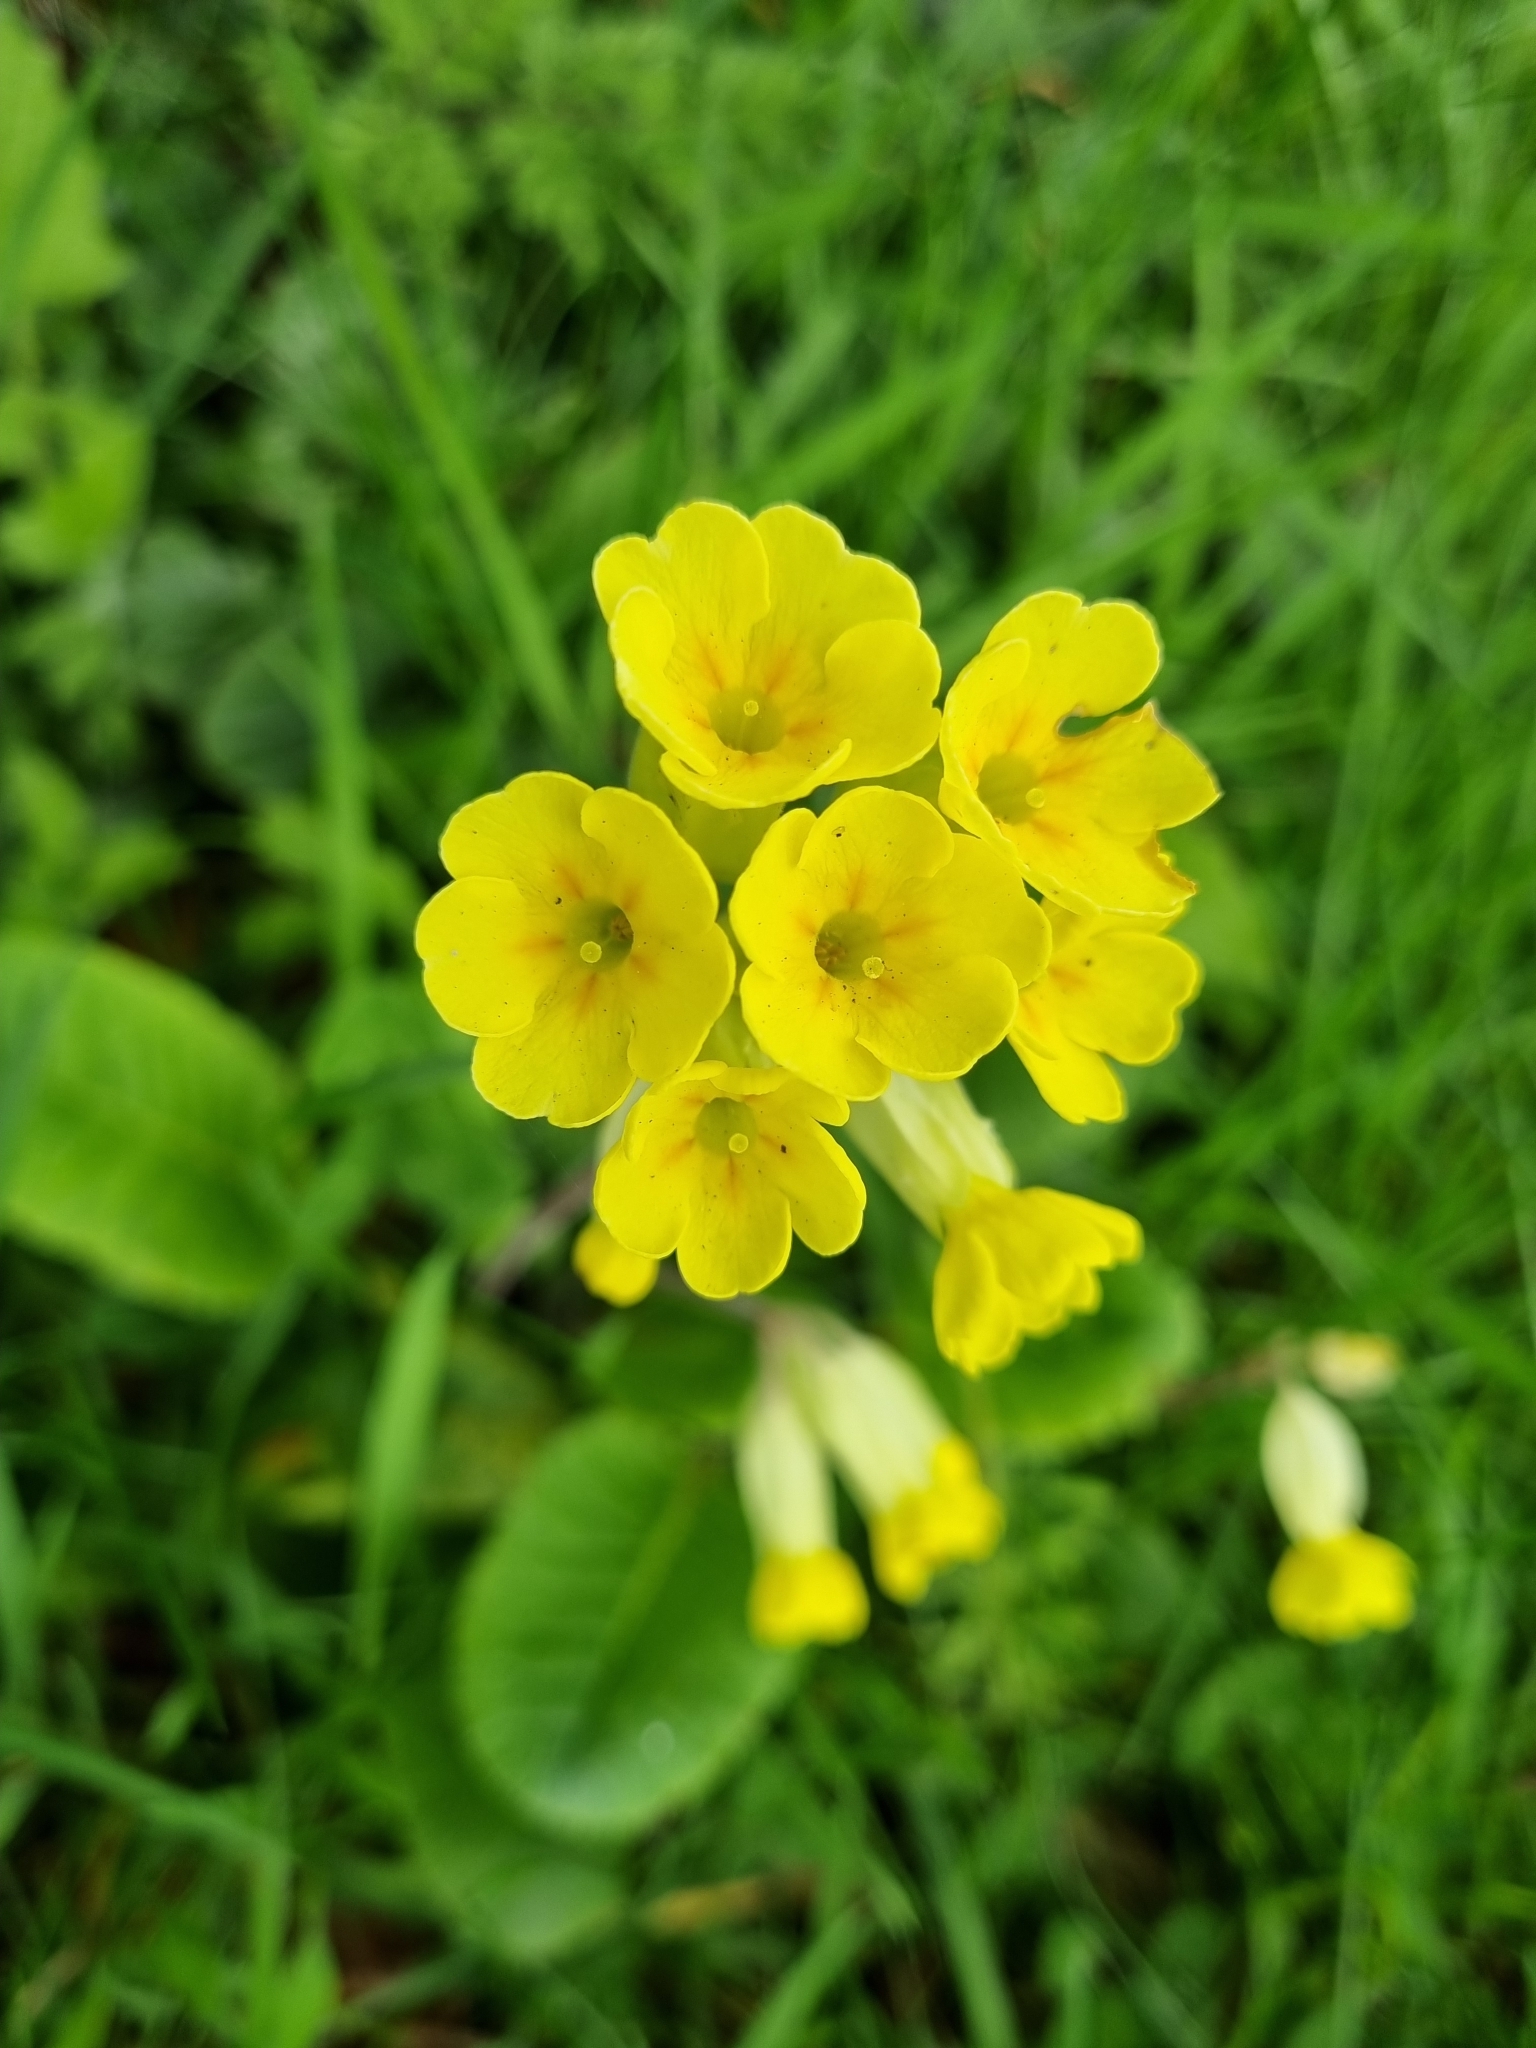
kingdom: Plantae
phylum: Tracheophyta
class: Magnoliopsida
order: Ericales
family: Primulaceae
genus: Primula
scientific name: Primula veris
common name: Cowslip
